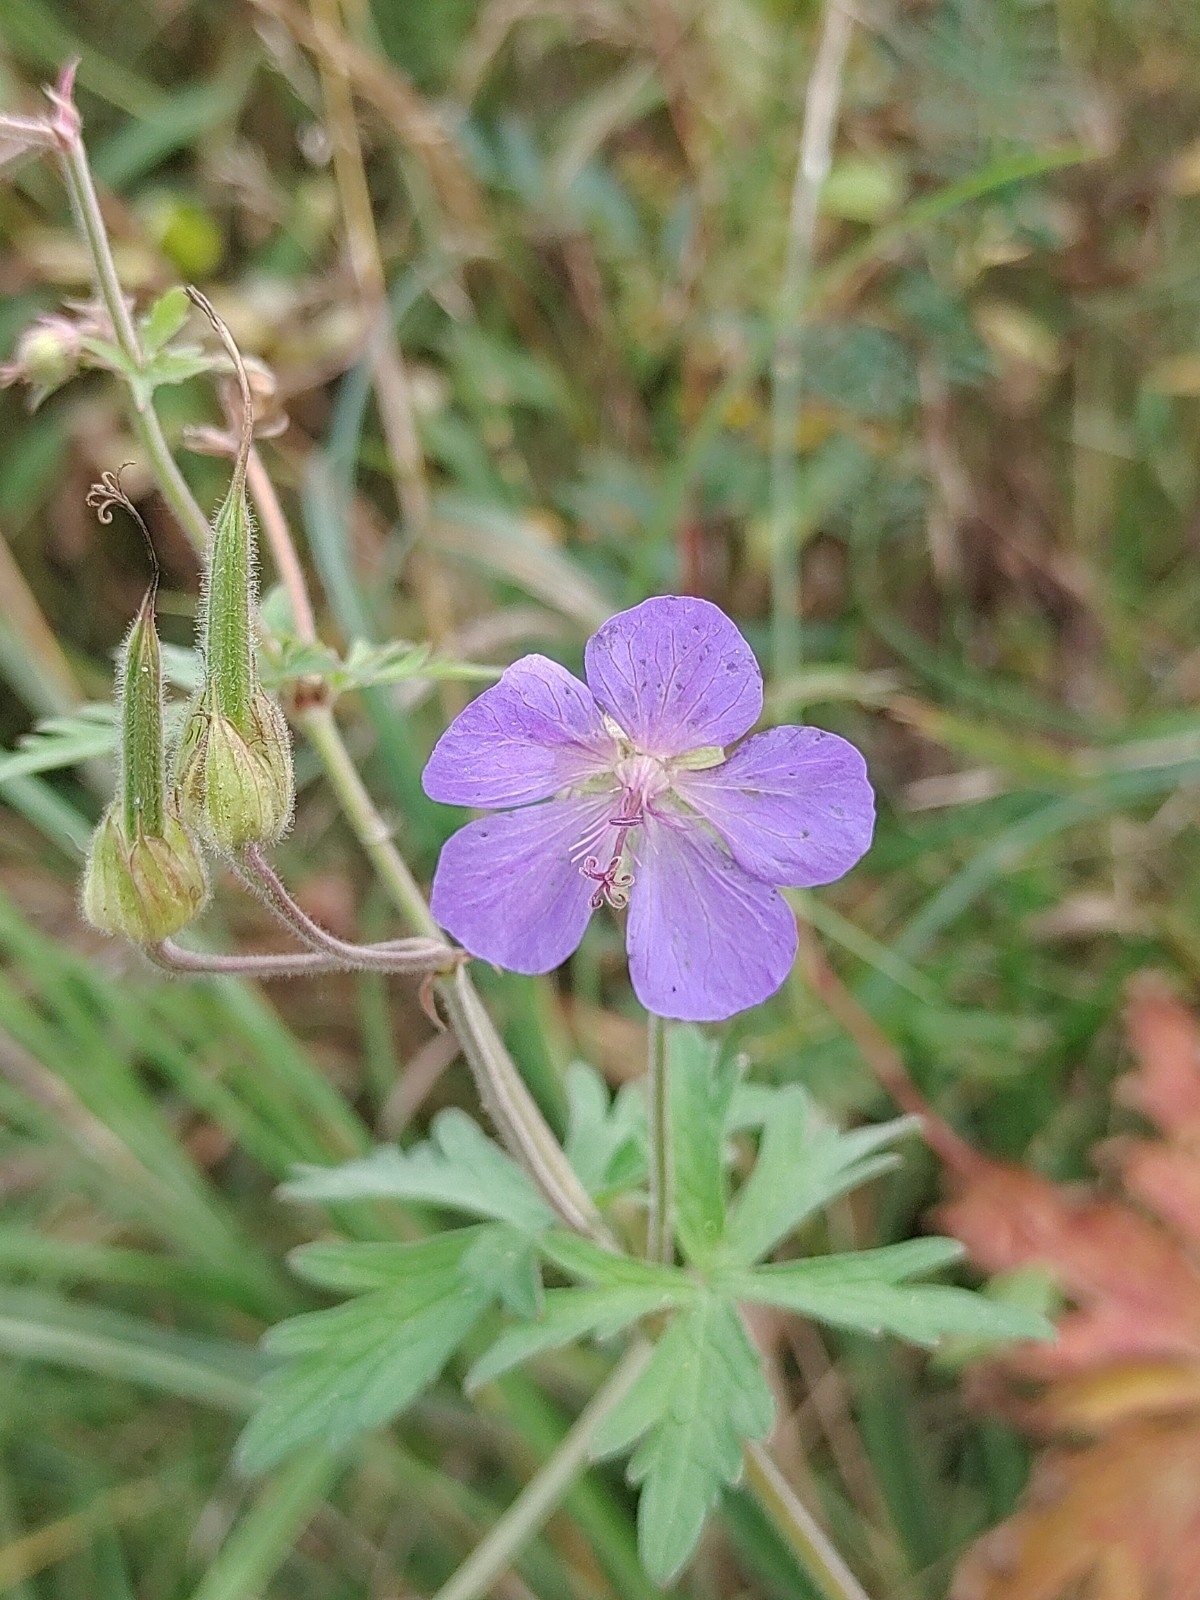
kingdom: Plantae
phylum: Tracheophyta
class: Magnoliopsida
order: Geraniales
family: Geraniaceae
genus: Geranium
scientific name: Geranium pratense
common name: Meadow crane's-bill
